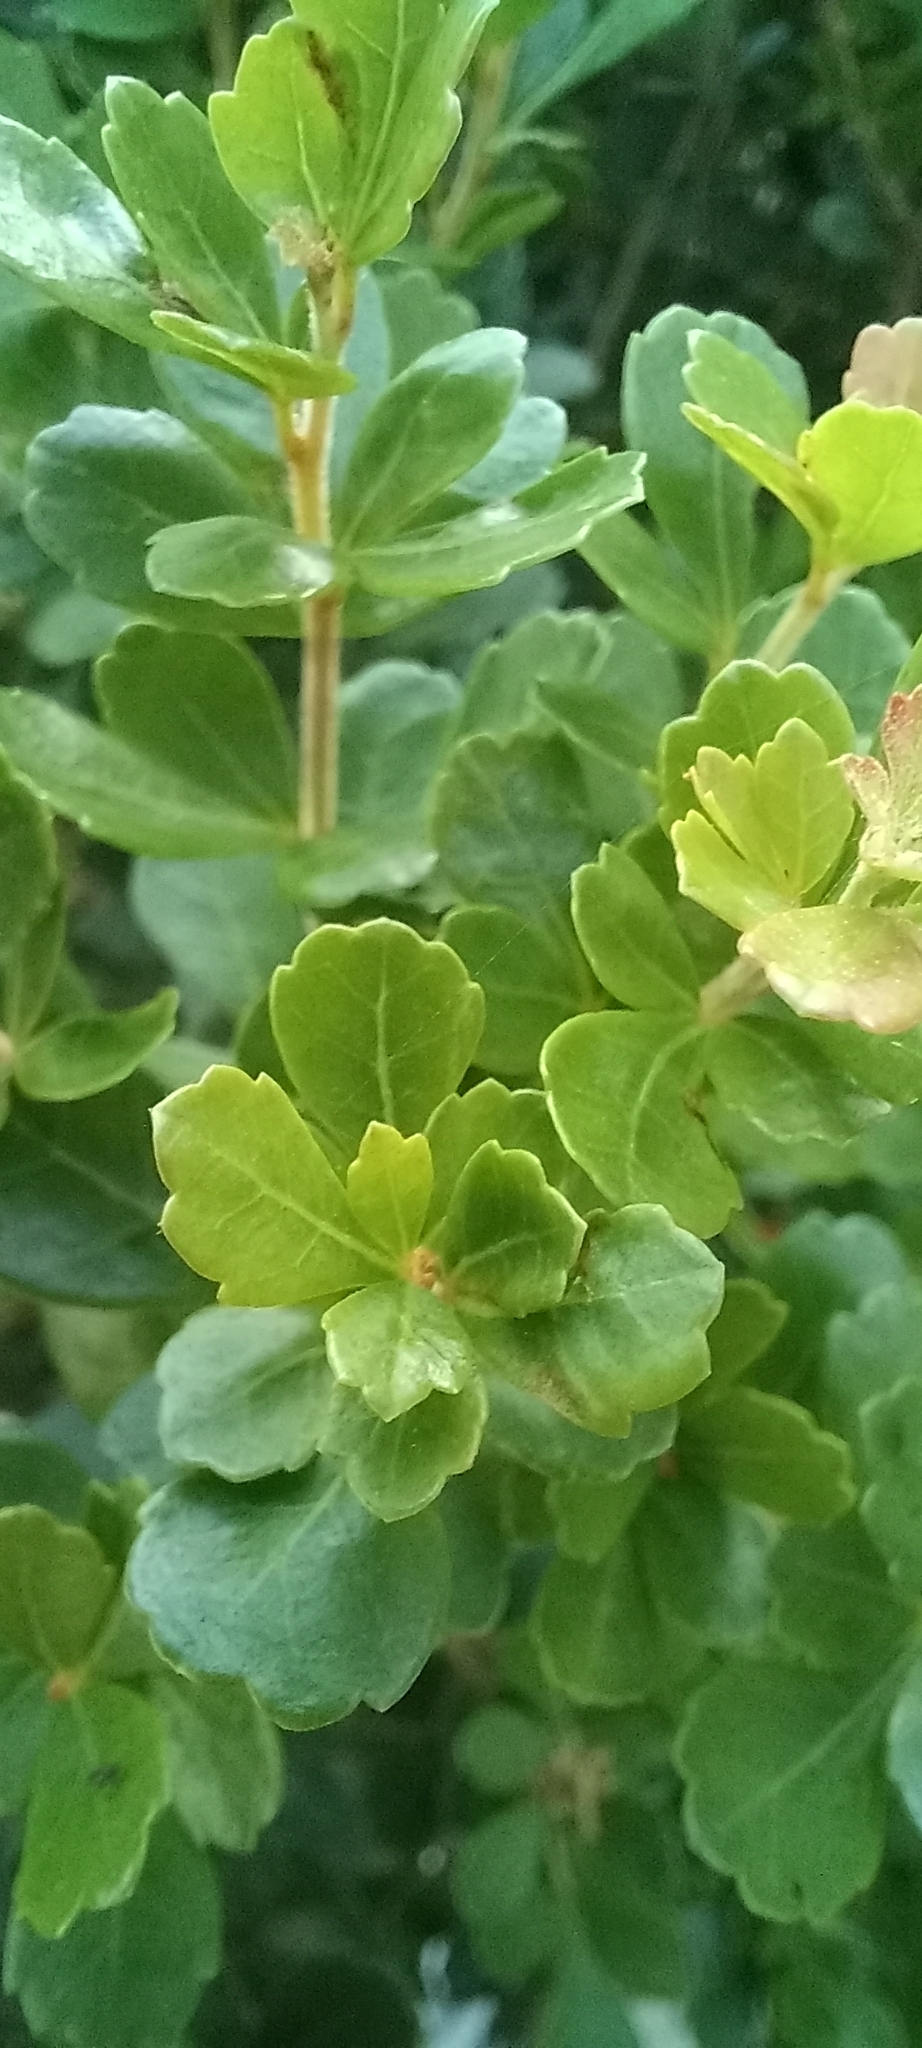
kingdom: Plantae
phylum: Tracheophyta
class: Magnoliopsida
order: Sapindales
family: Anacardiaceae
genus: Searsia
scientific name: Searsia crenata
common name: Crowberry
